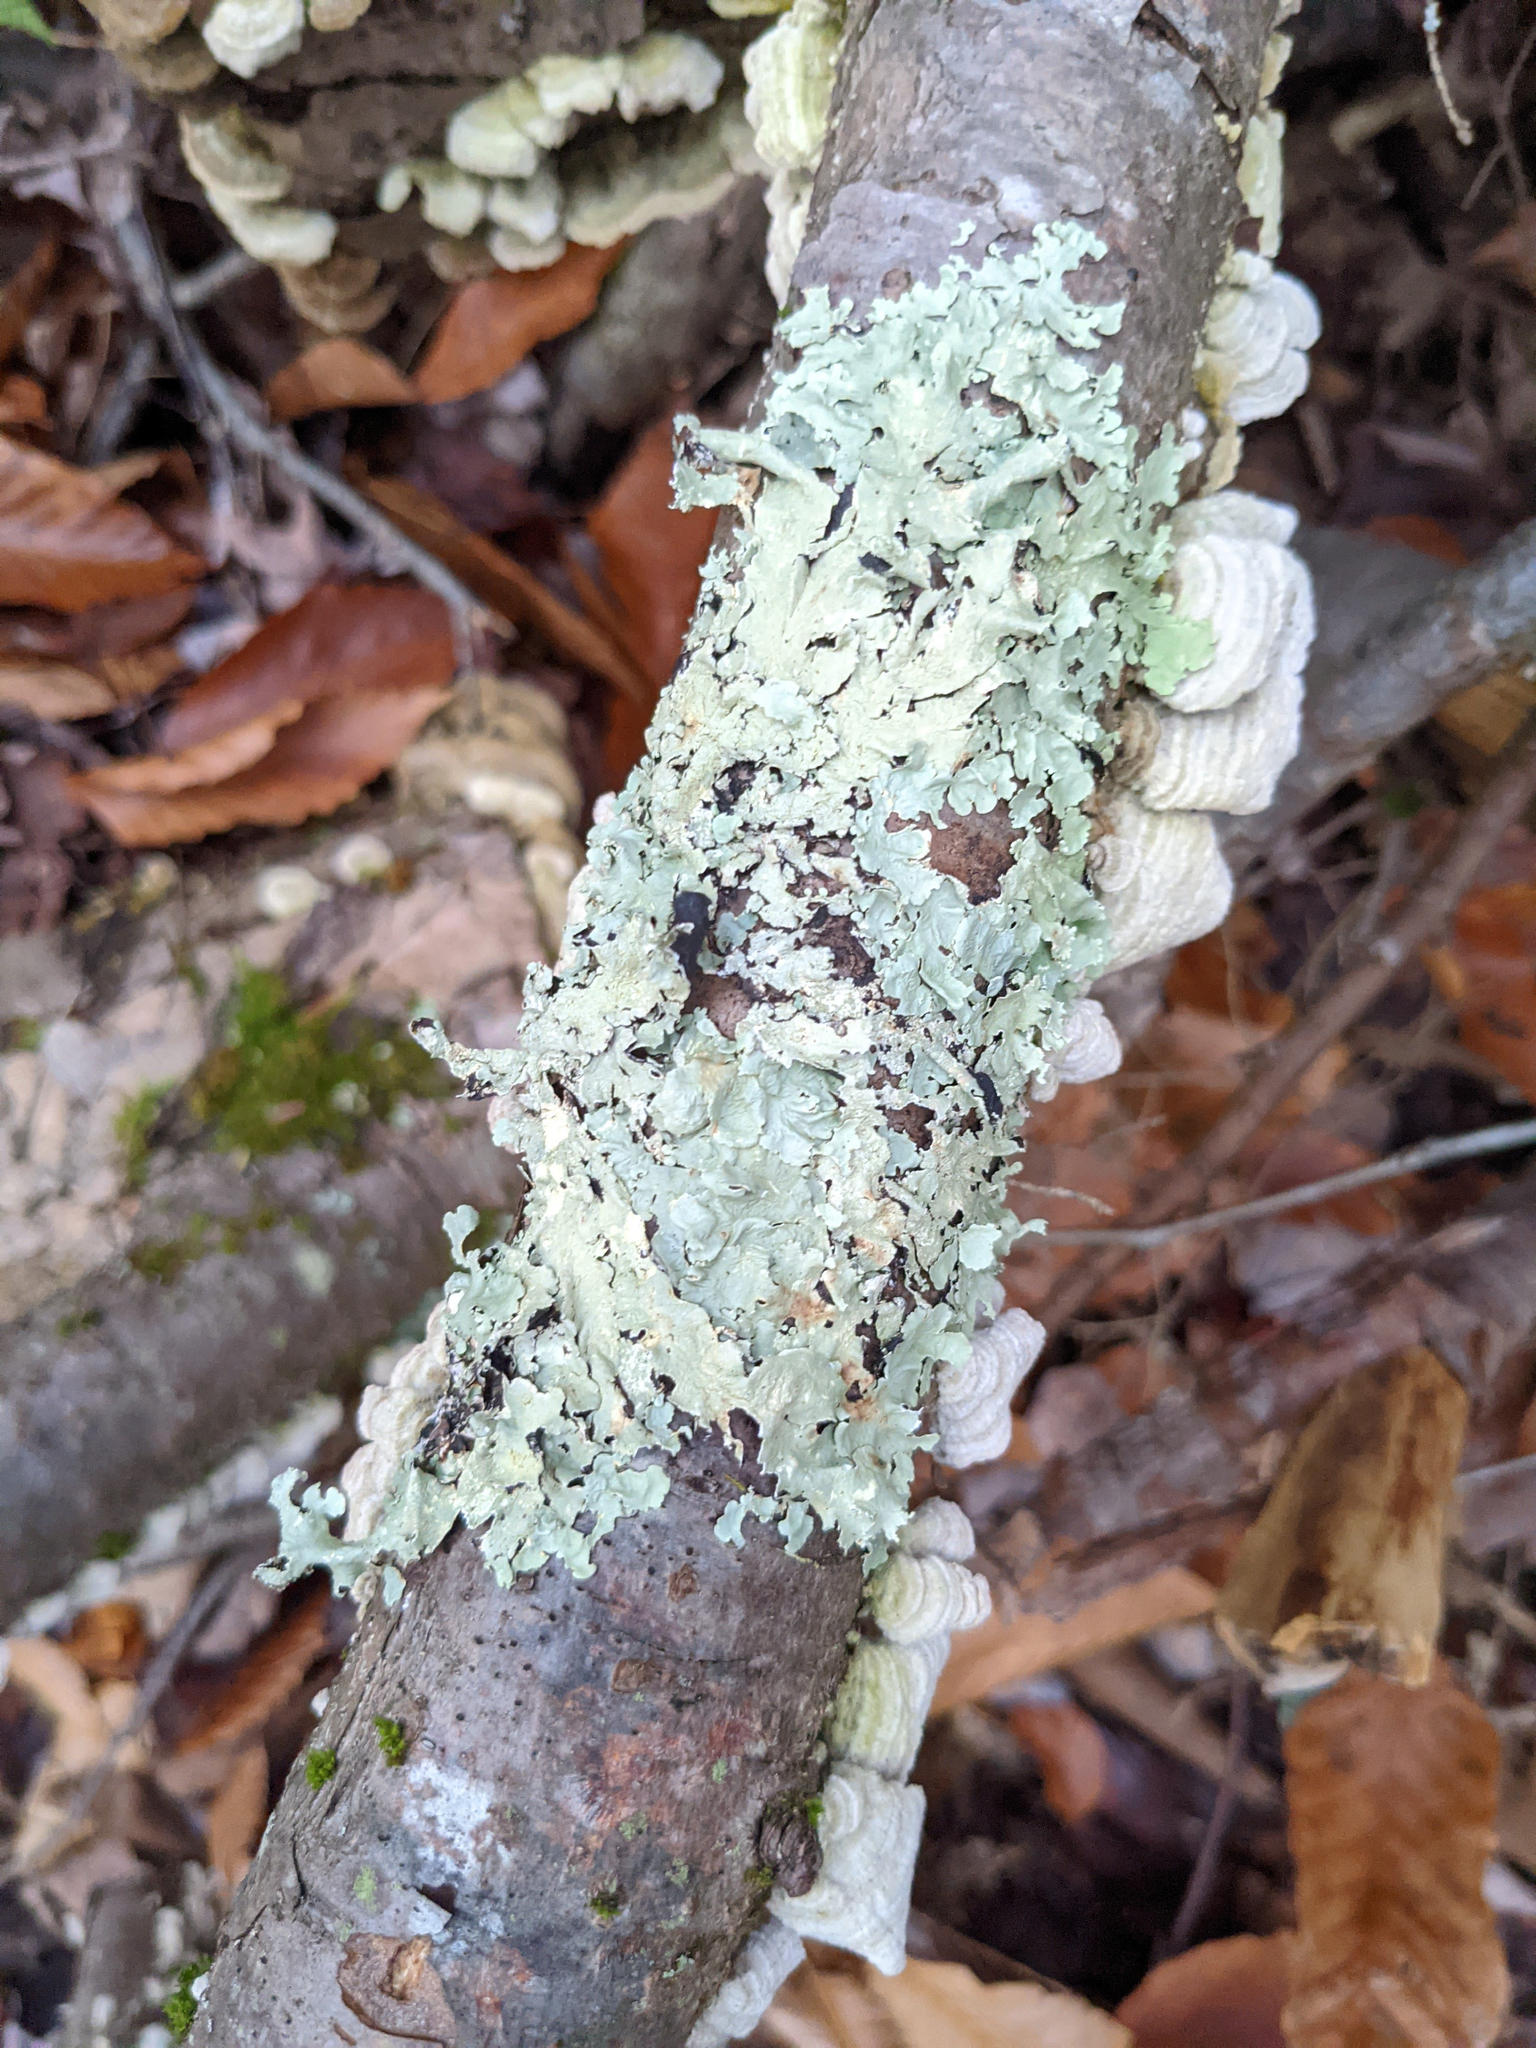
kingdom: Fungi
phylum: Ascomycota
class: Lecanoromycetes
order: Lecanorales
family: Parmeliaceae
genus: Flavoparmelia
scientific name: Flavoparmelia caperata
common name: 40-mile per hour lichen
